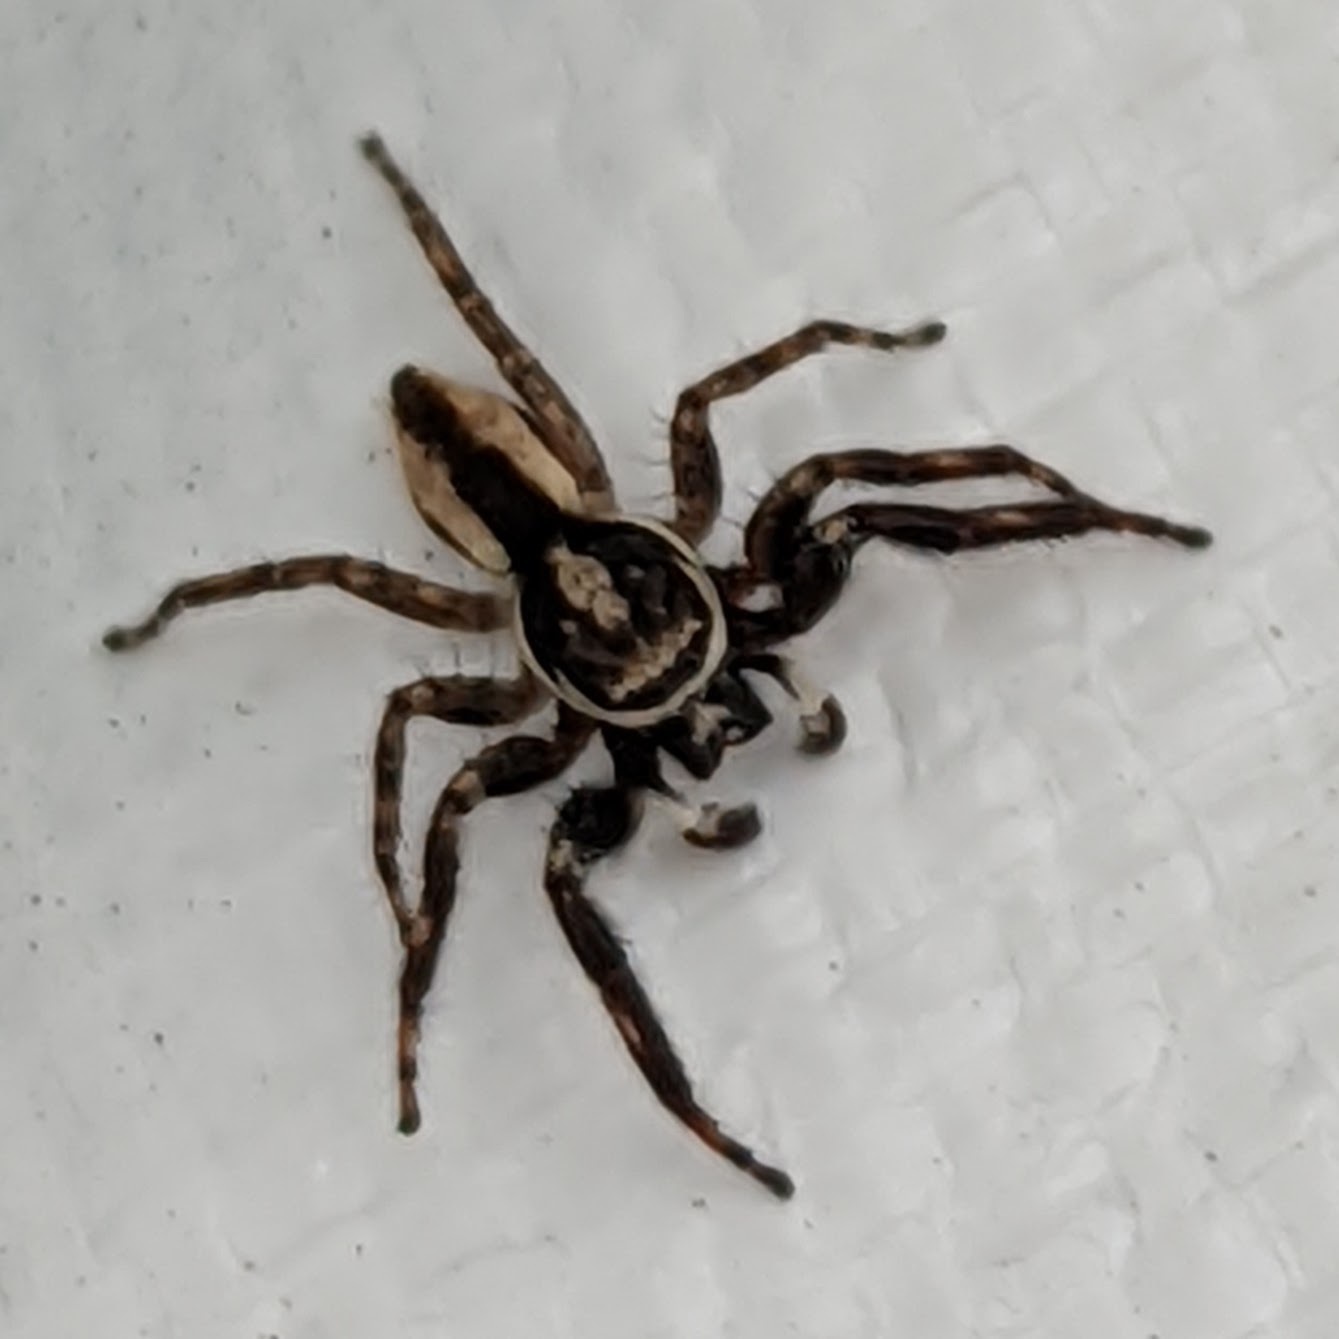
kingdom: Animalia
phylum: Arthropoda
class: Arachnida
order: Araneae
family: Salticidae
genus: Menemerus
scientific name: Menemerus bivittatus
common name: Gray wall jumper
